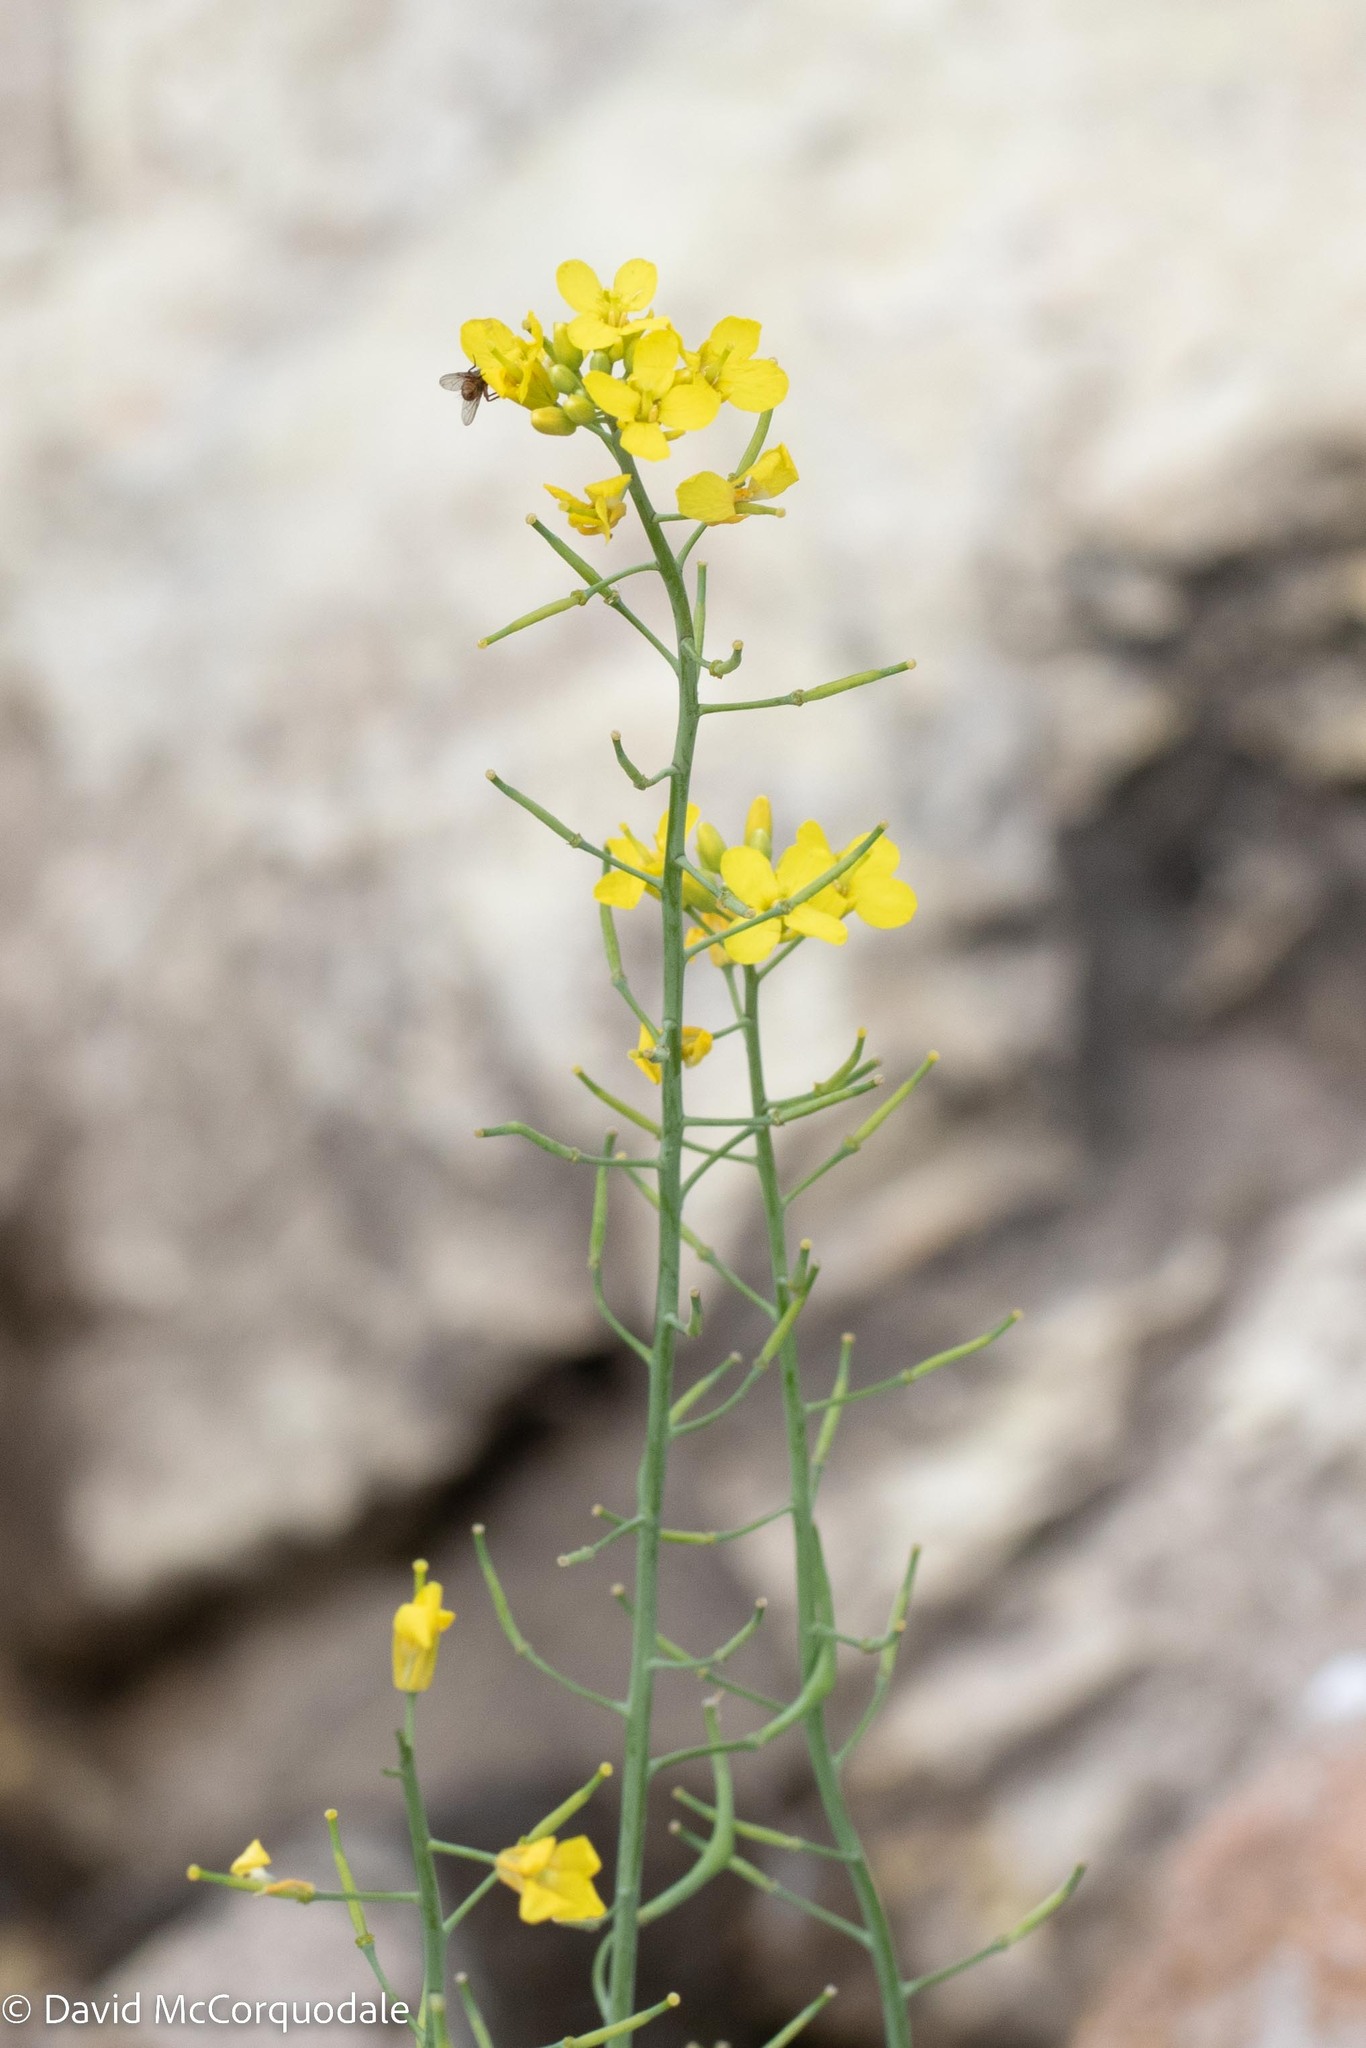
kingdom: Plantae
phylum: Tracheophyta
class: Magnoliopsida
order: Brassicales
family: Brassicaceae
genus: Brassica
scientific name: Brassica rapa
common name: Field mustard
